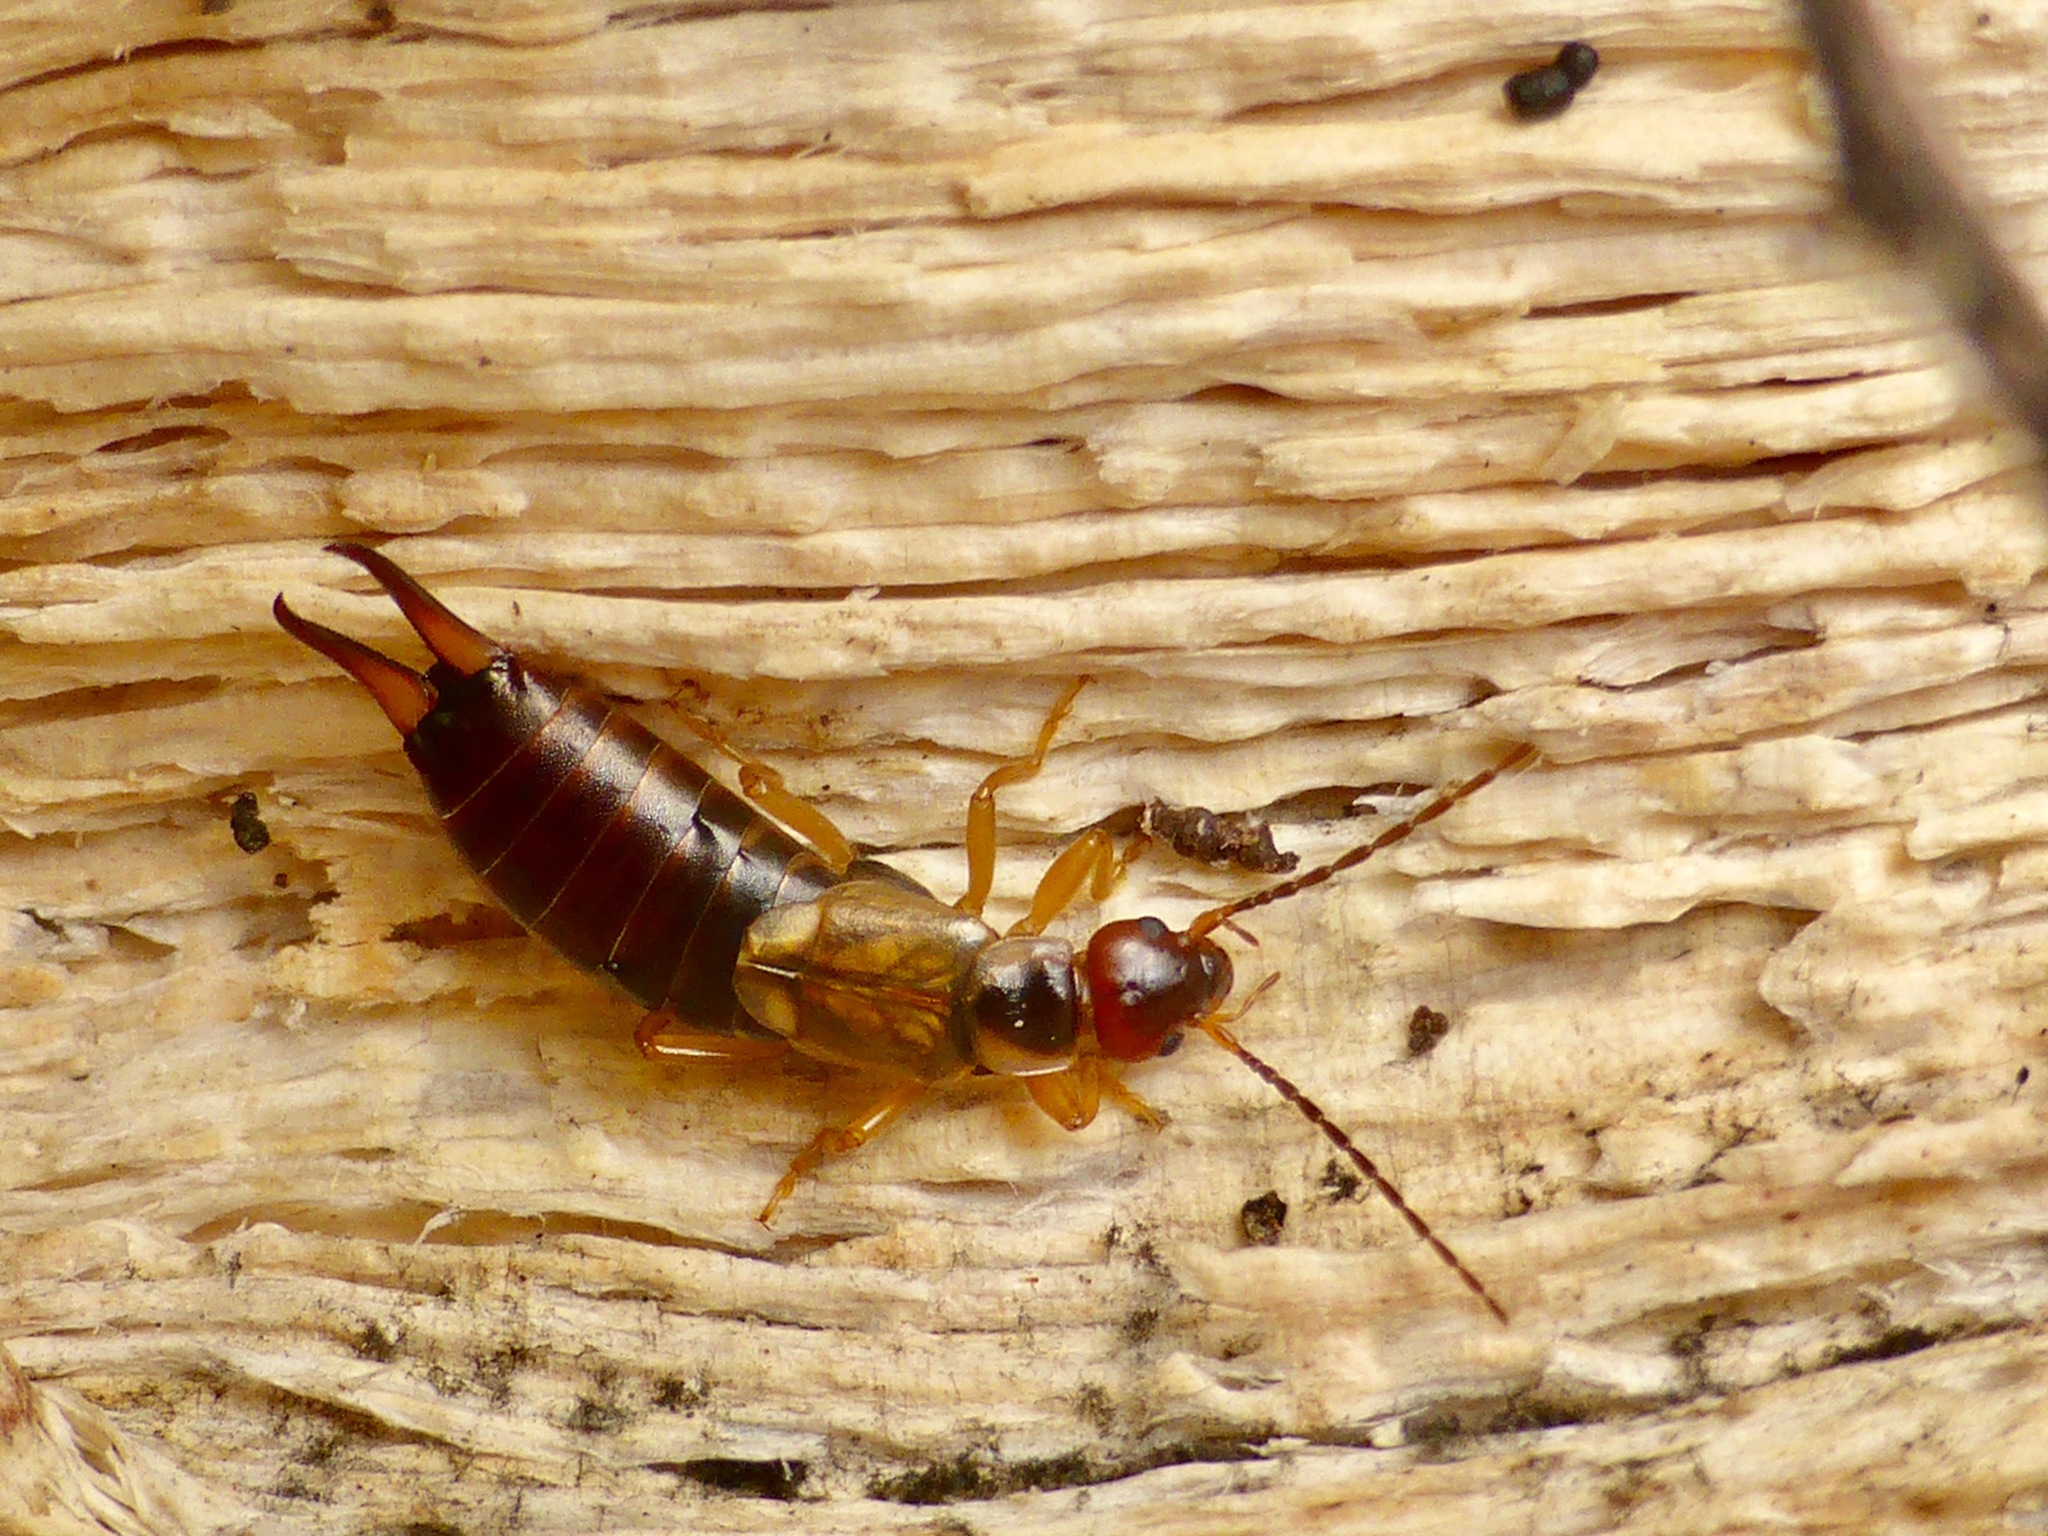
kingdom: Animalia
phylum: Arthropoda
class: Insecta
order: Dermaptera
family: Forficulidae
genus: Forficula
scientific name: Forficula
